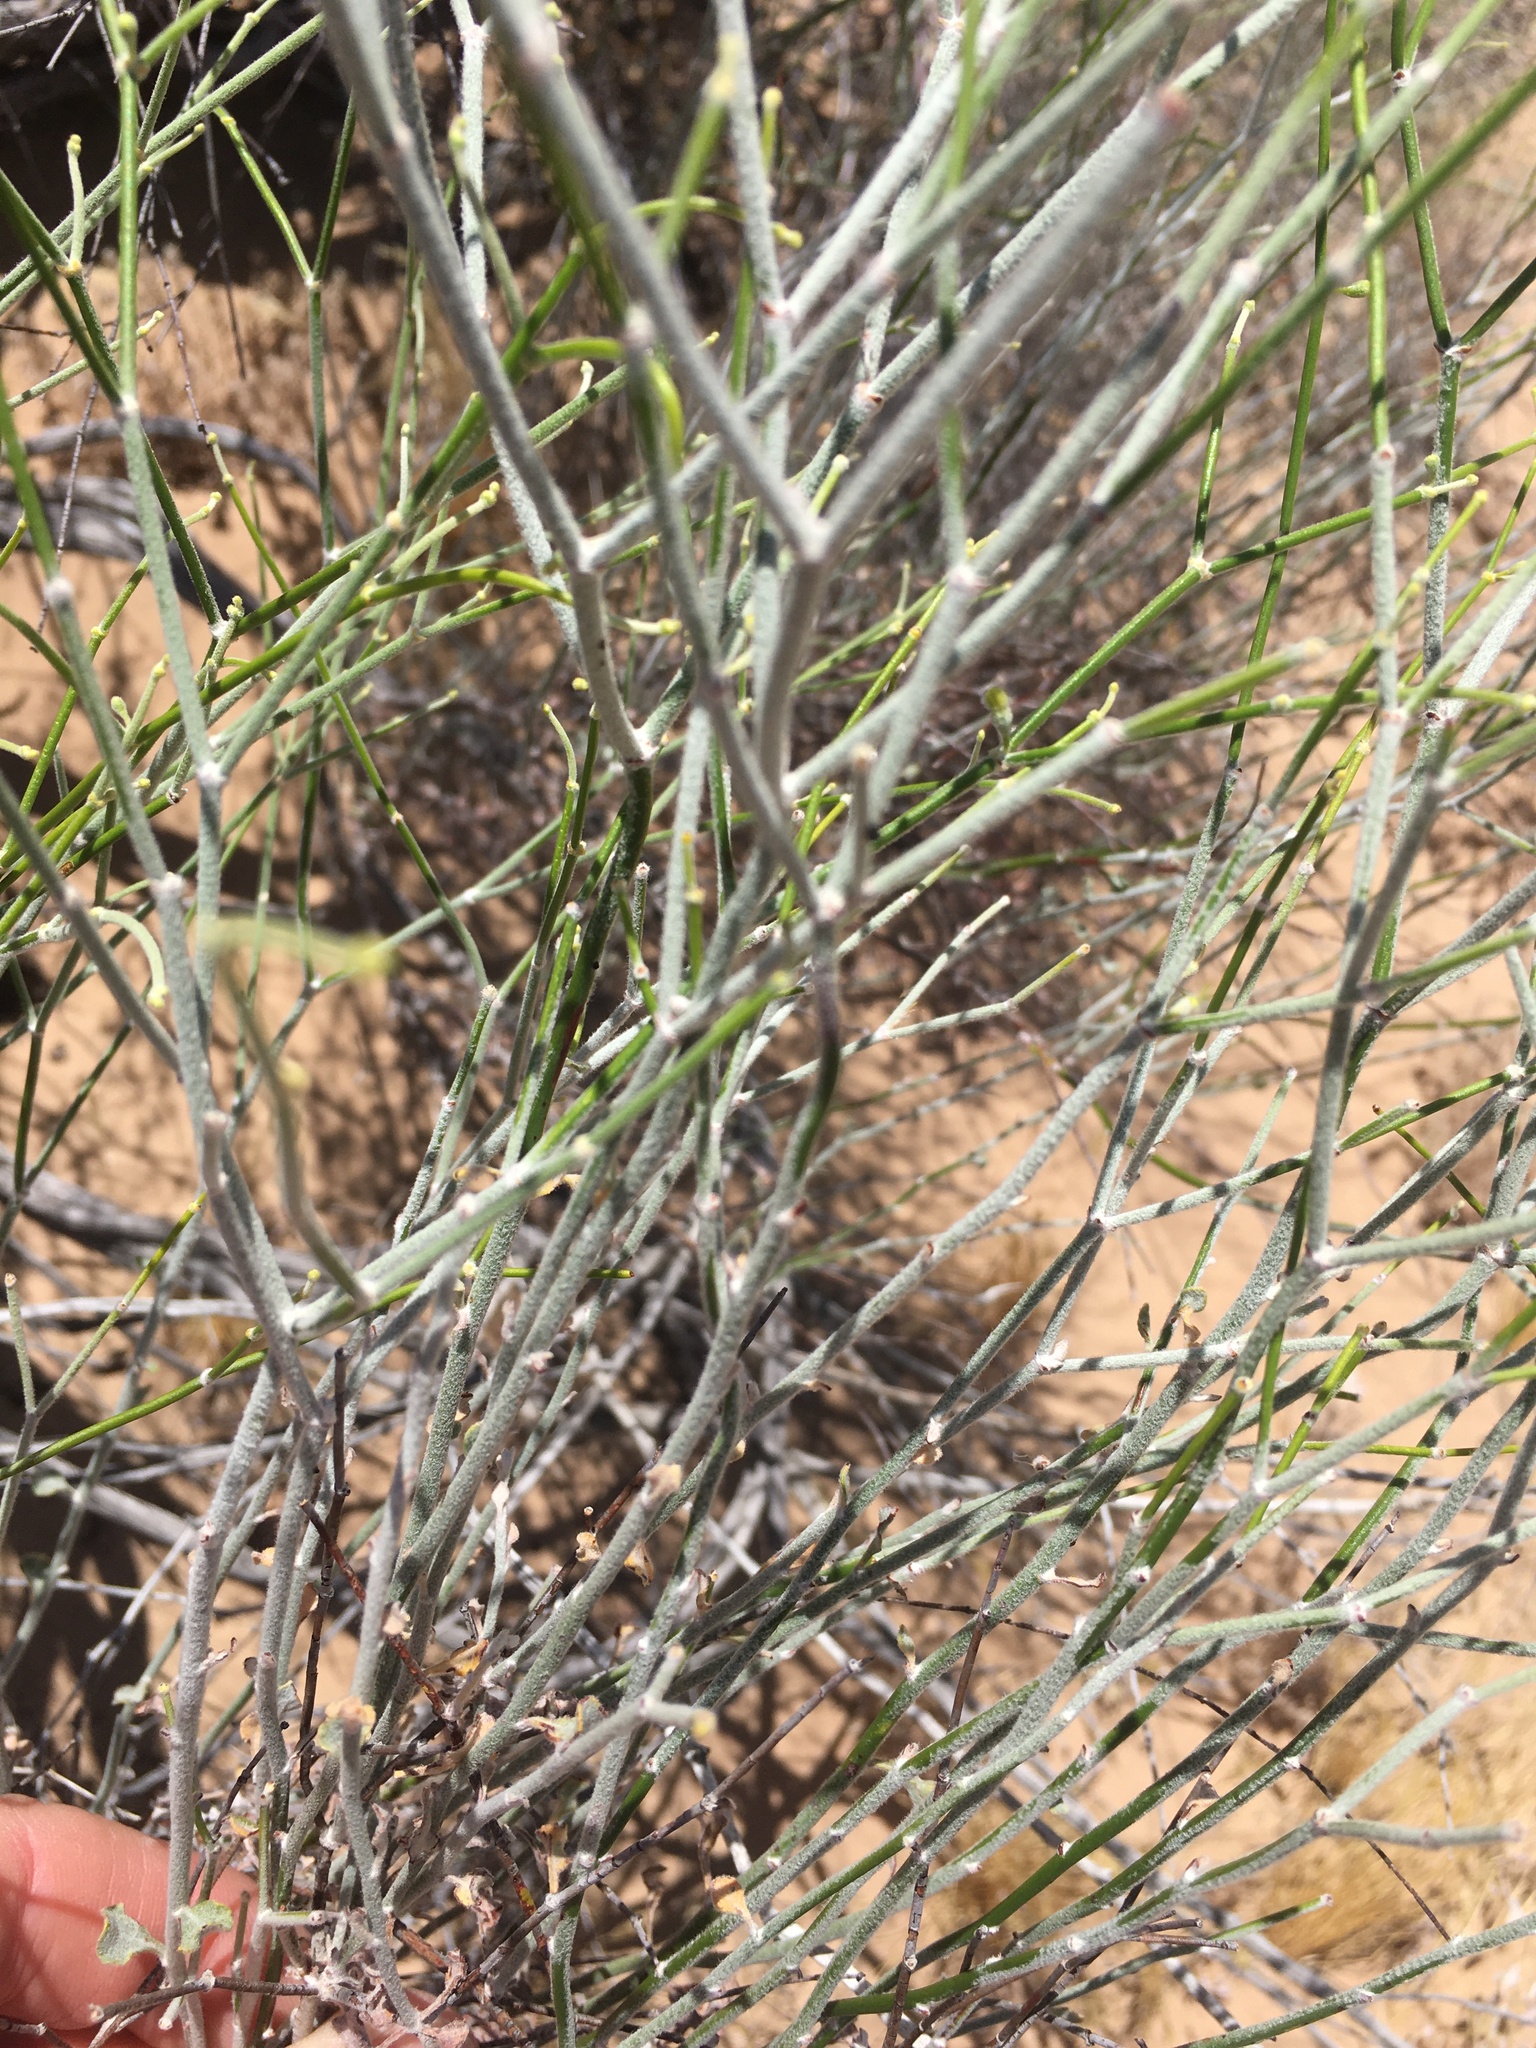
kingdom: Plantae
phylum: Tracheophyta
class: Magnoliopsida
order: Caryophyllales
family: Polygonaceae
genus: Eriogonum
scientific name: Eriogonum deserticola
